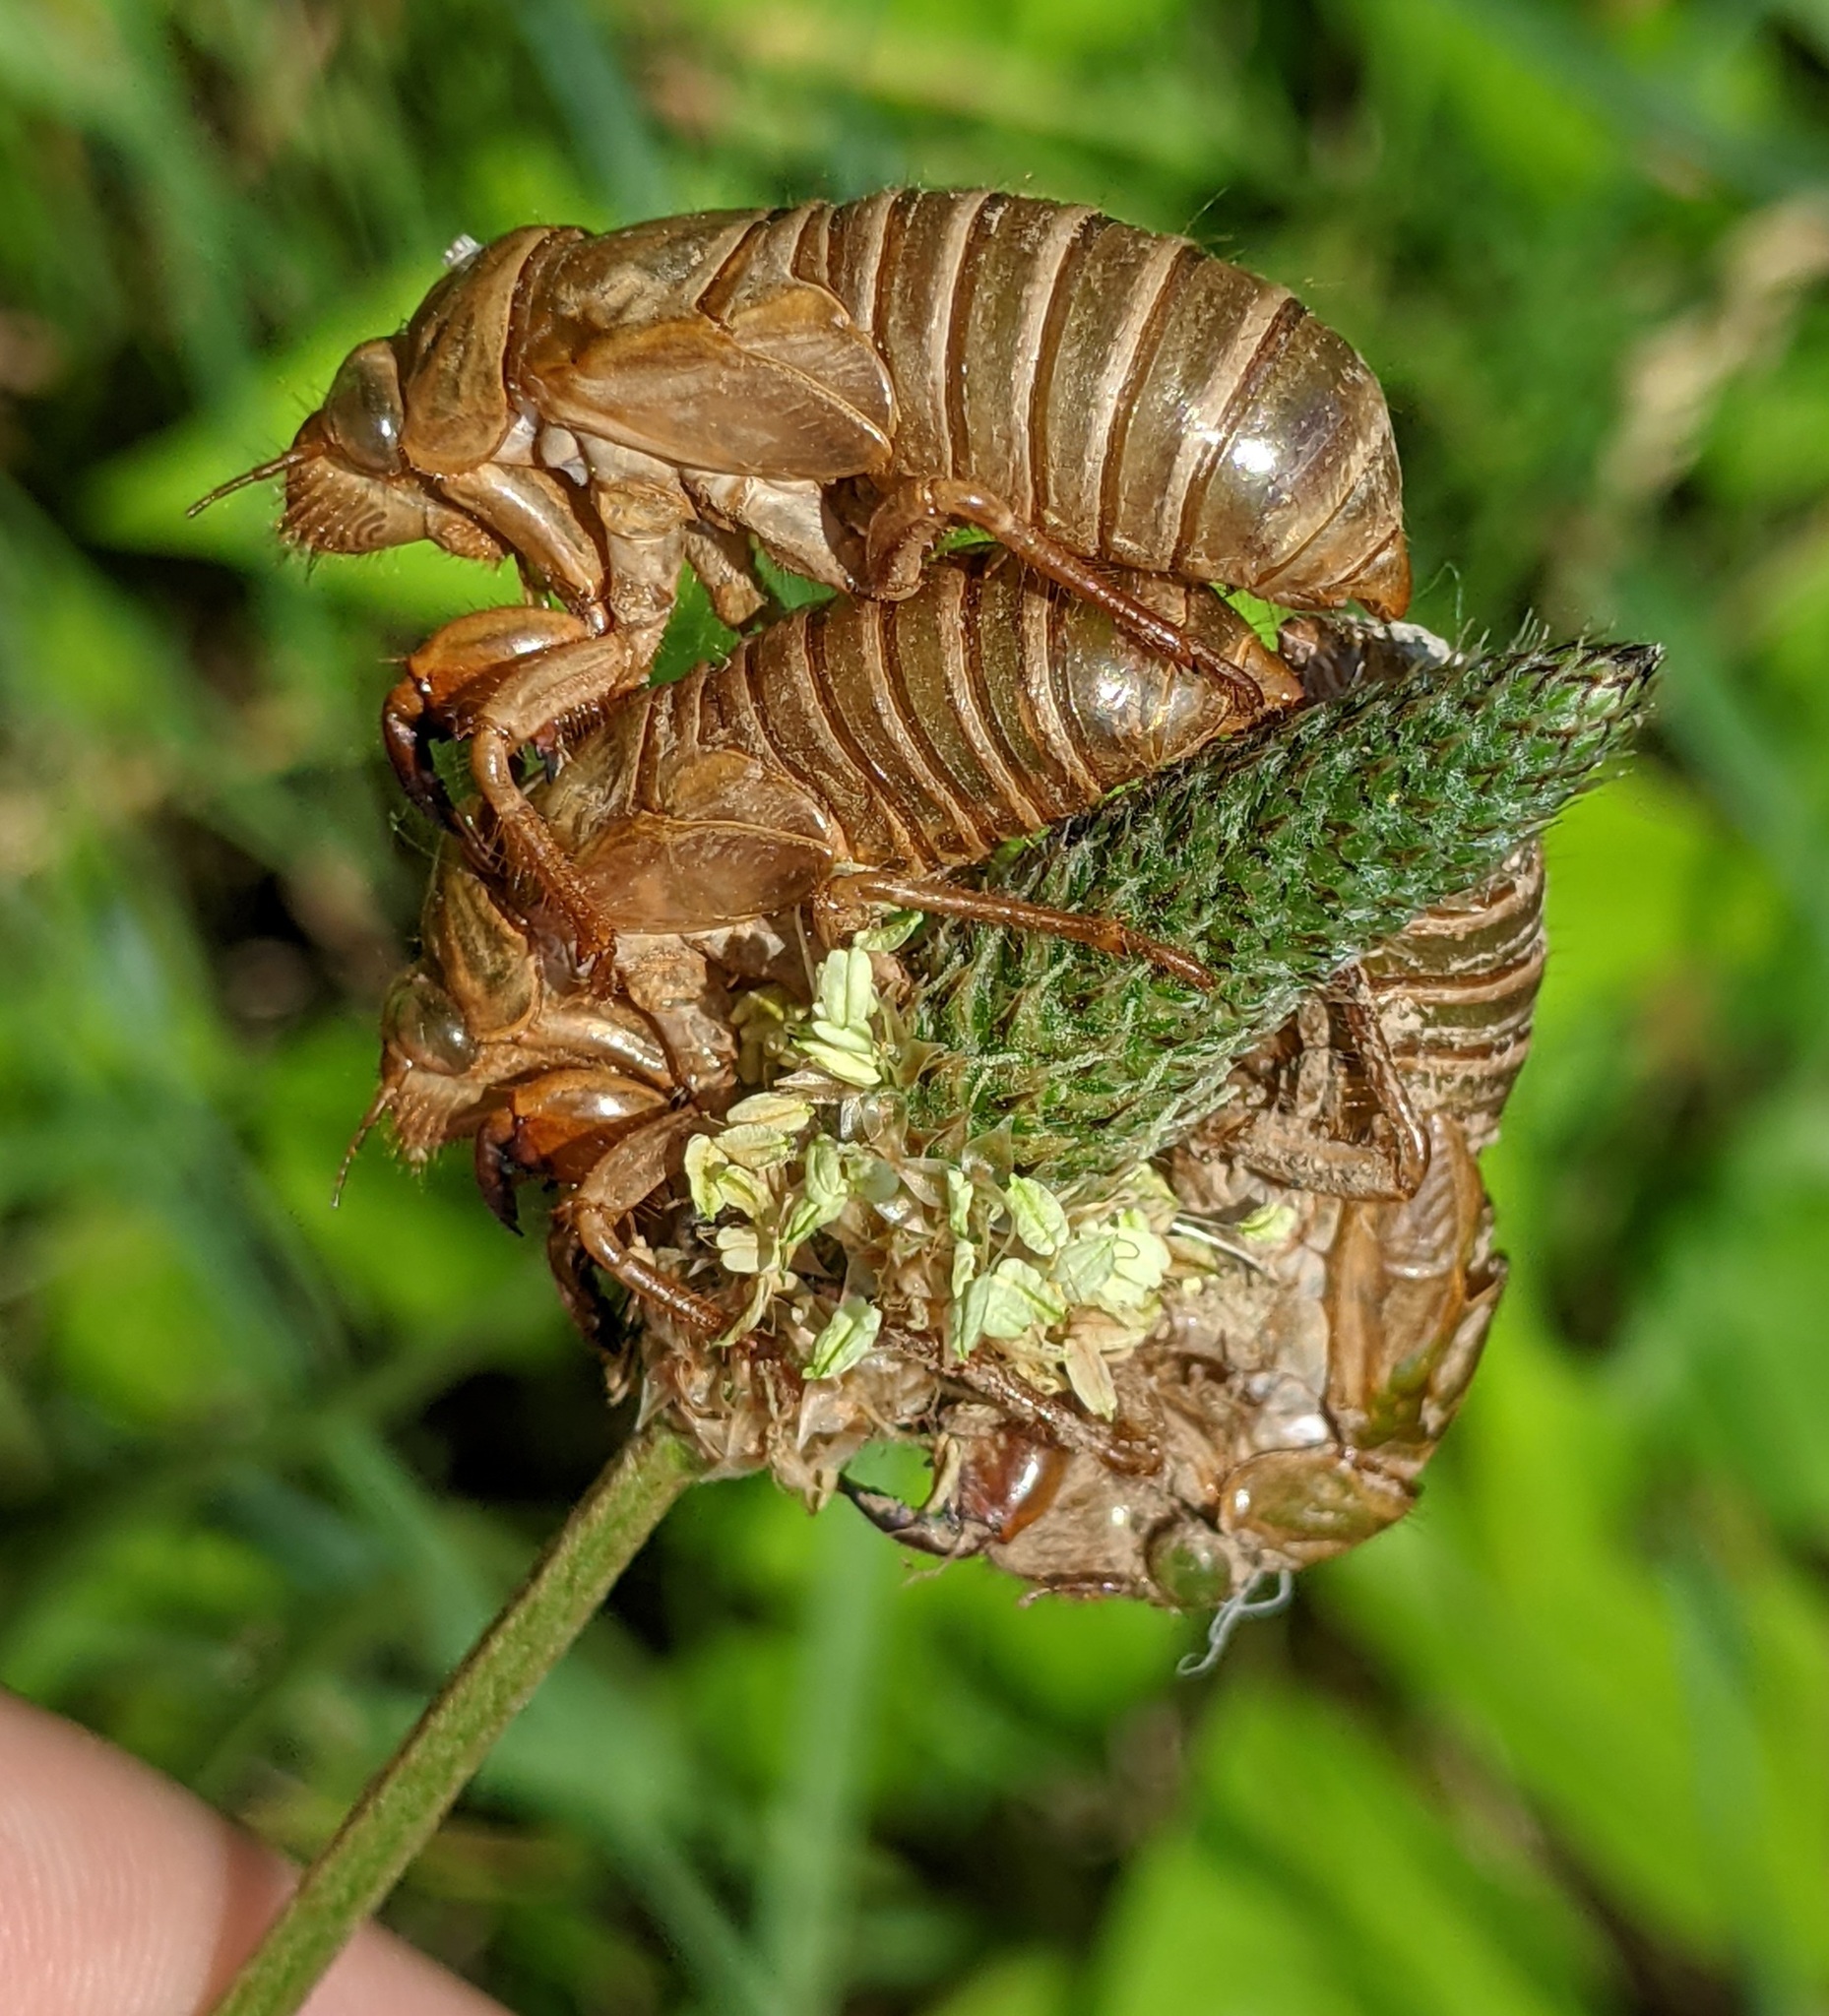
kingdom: Animalia
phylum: Arthropoda
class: Insecta
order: Hemiptera
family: Cicadidae
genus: Magicicada
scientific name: Magicicada septendecim
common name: Periodical cicada
